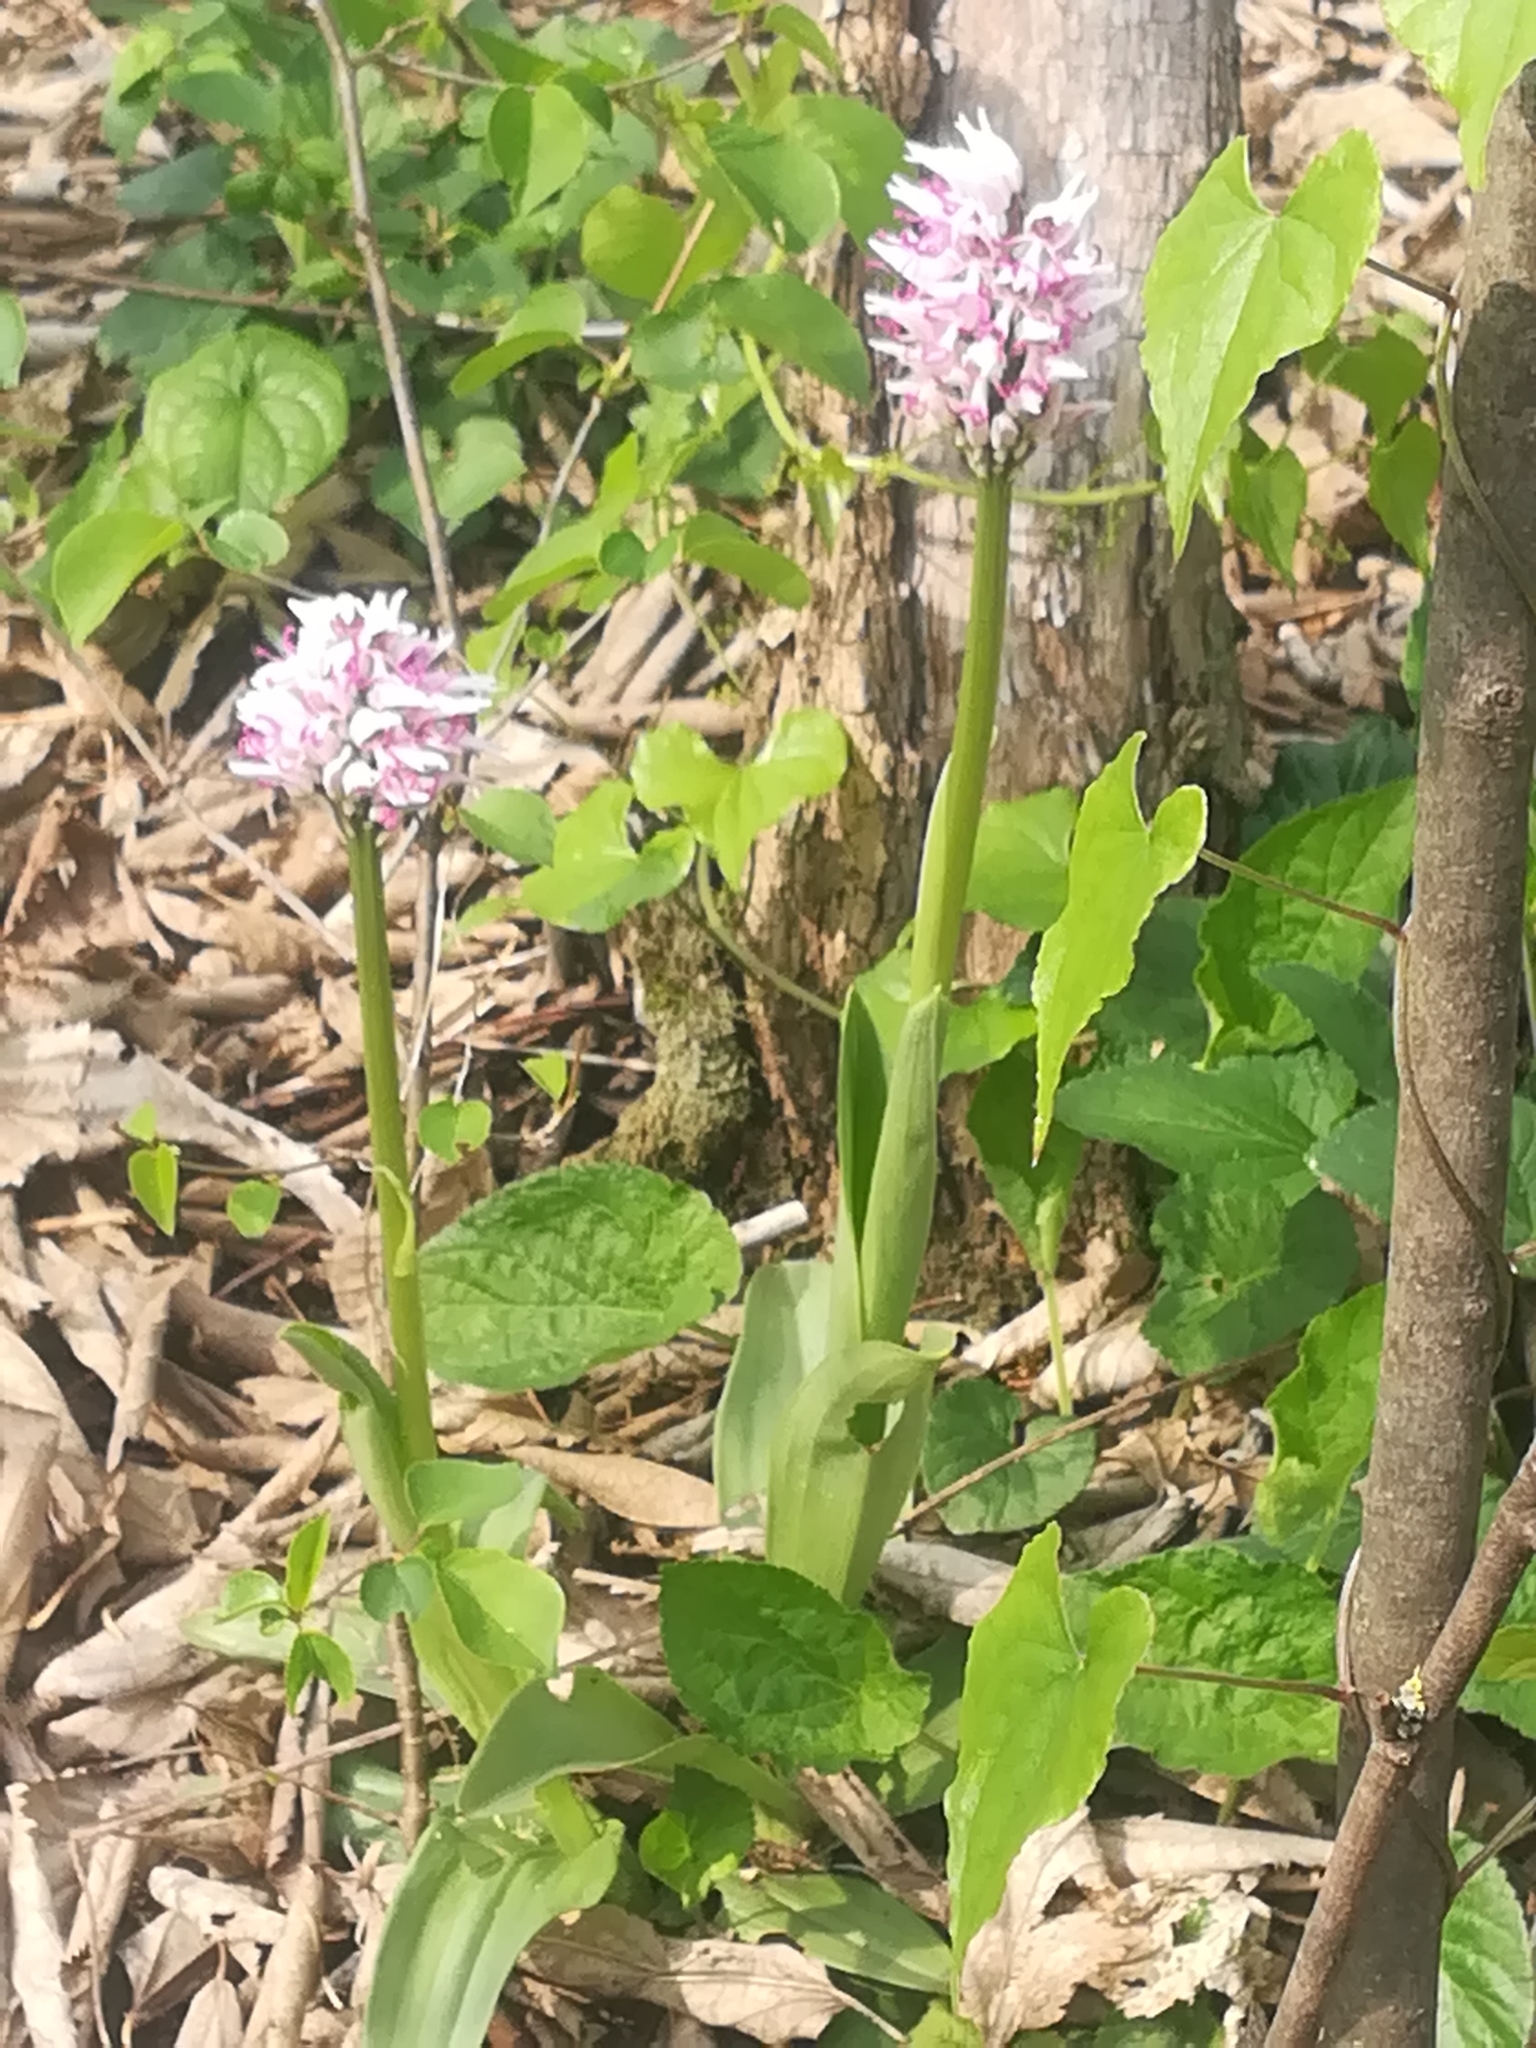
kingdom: Plantae
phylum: Tracheophyta
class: Liliopsida
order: Asparagales
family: Orchidaceae
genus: Orchis
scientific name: Orchis simia
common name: Monkey orchid
